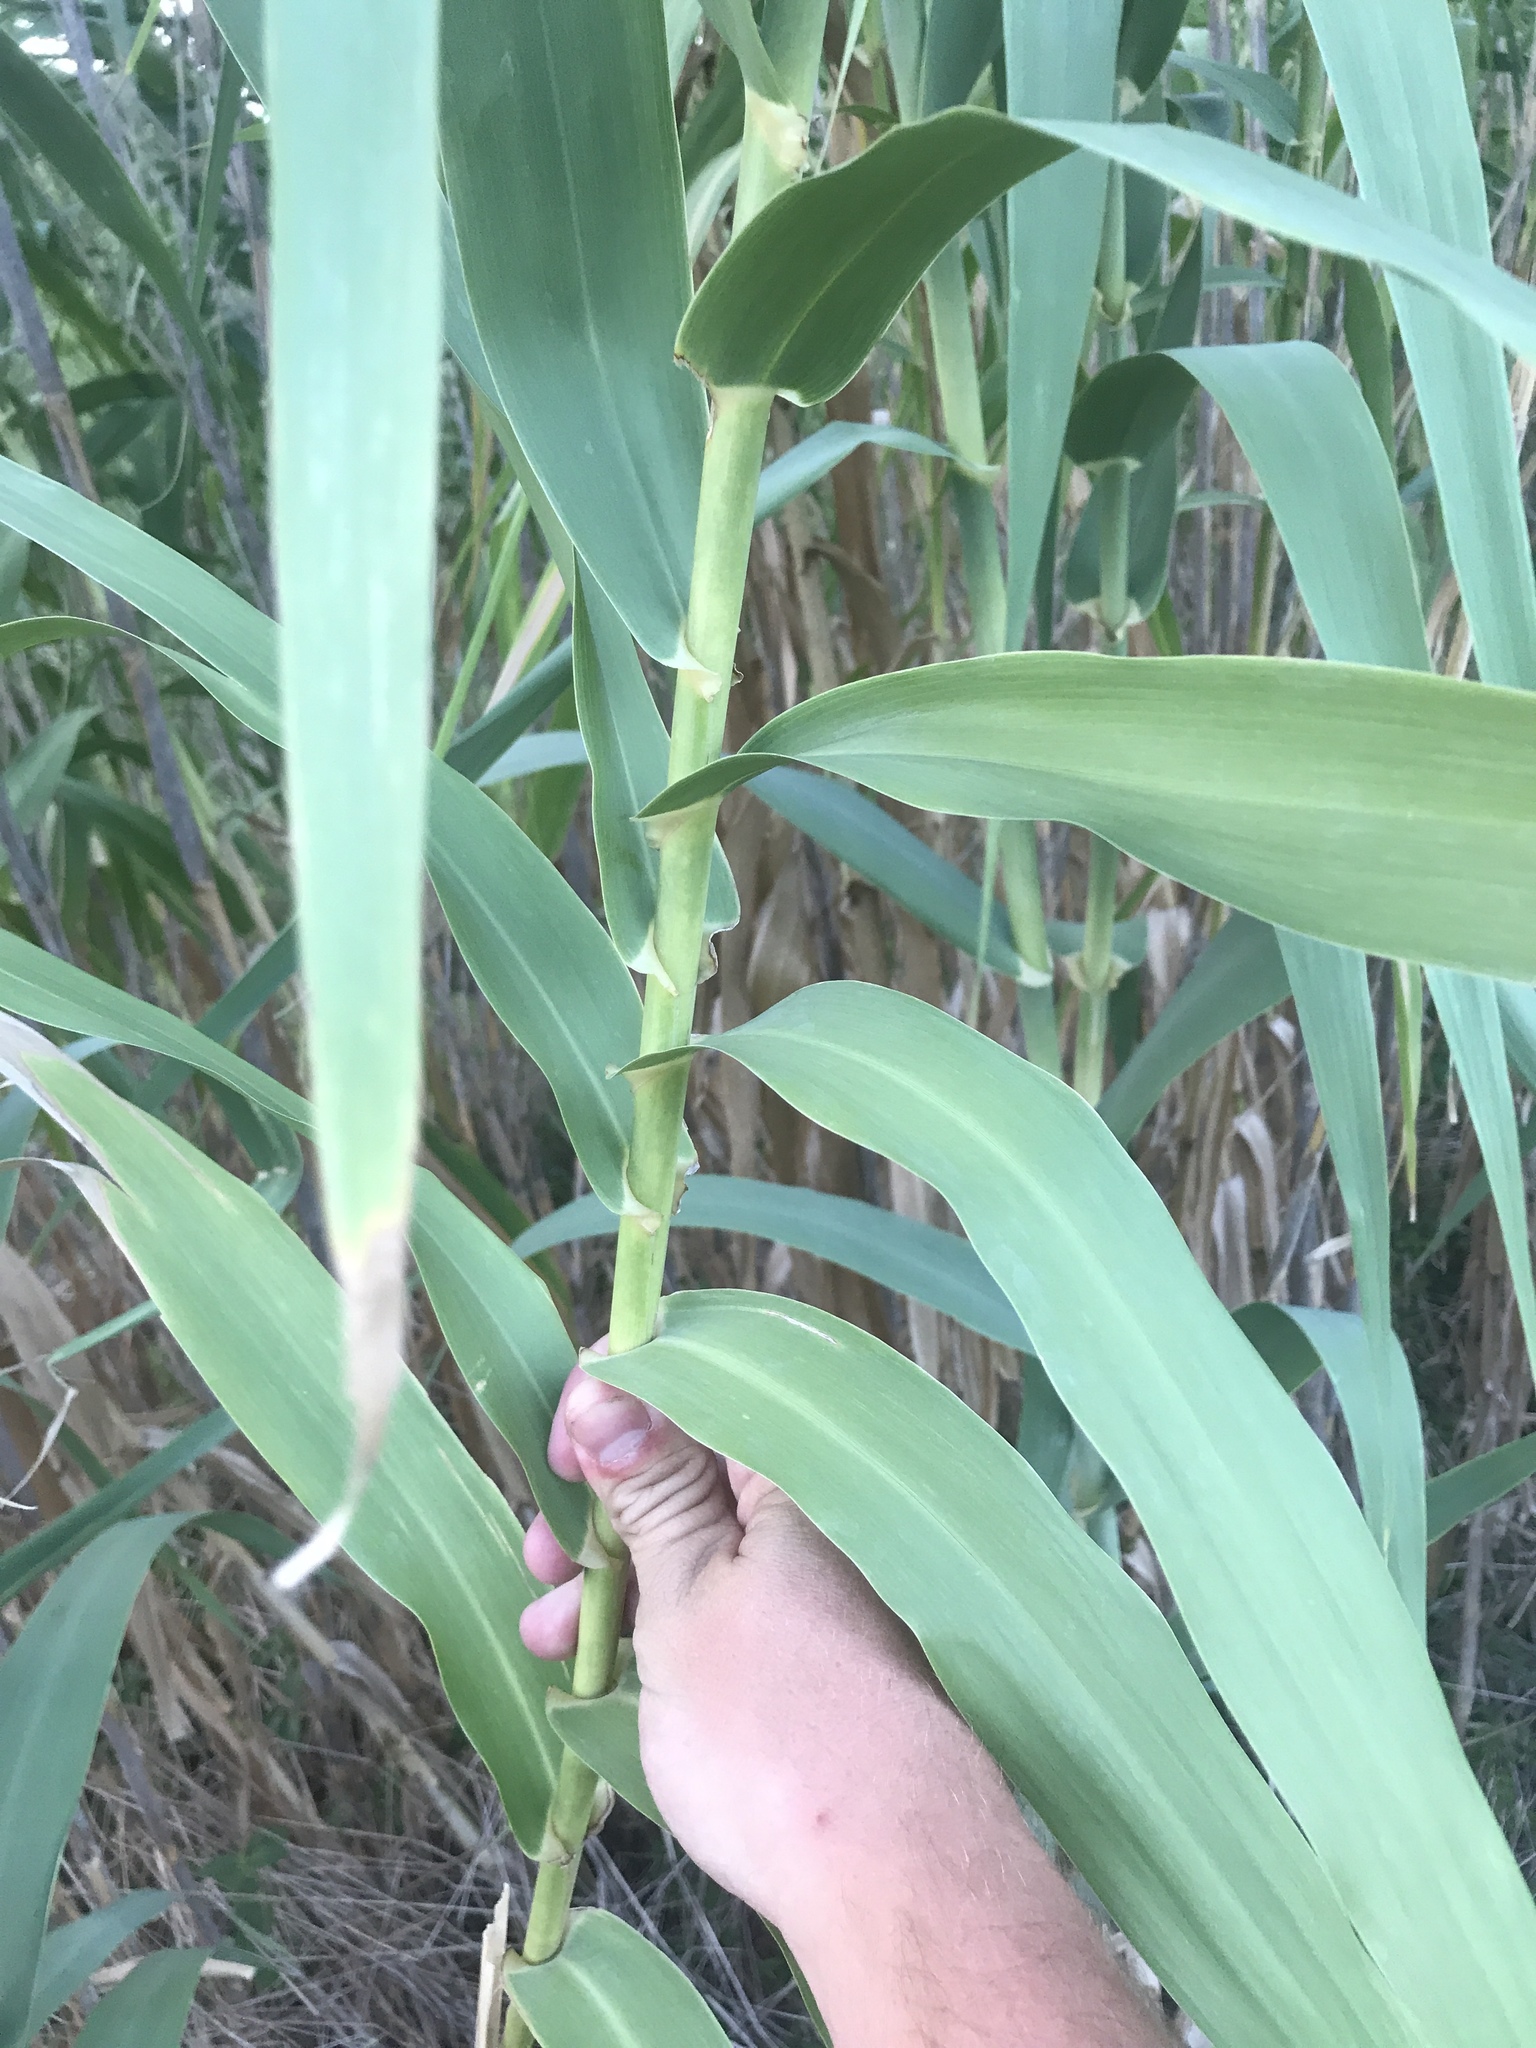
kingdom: Plantae
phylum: Tracheophyta
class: Liliopsida
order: Poales
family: Poaceae
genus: Arundo
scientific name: Arundo donax
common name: Giant reed
